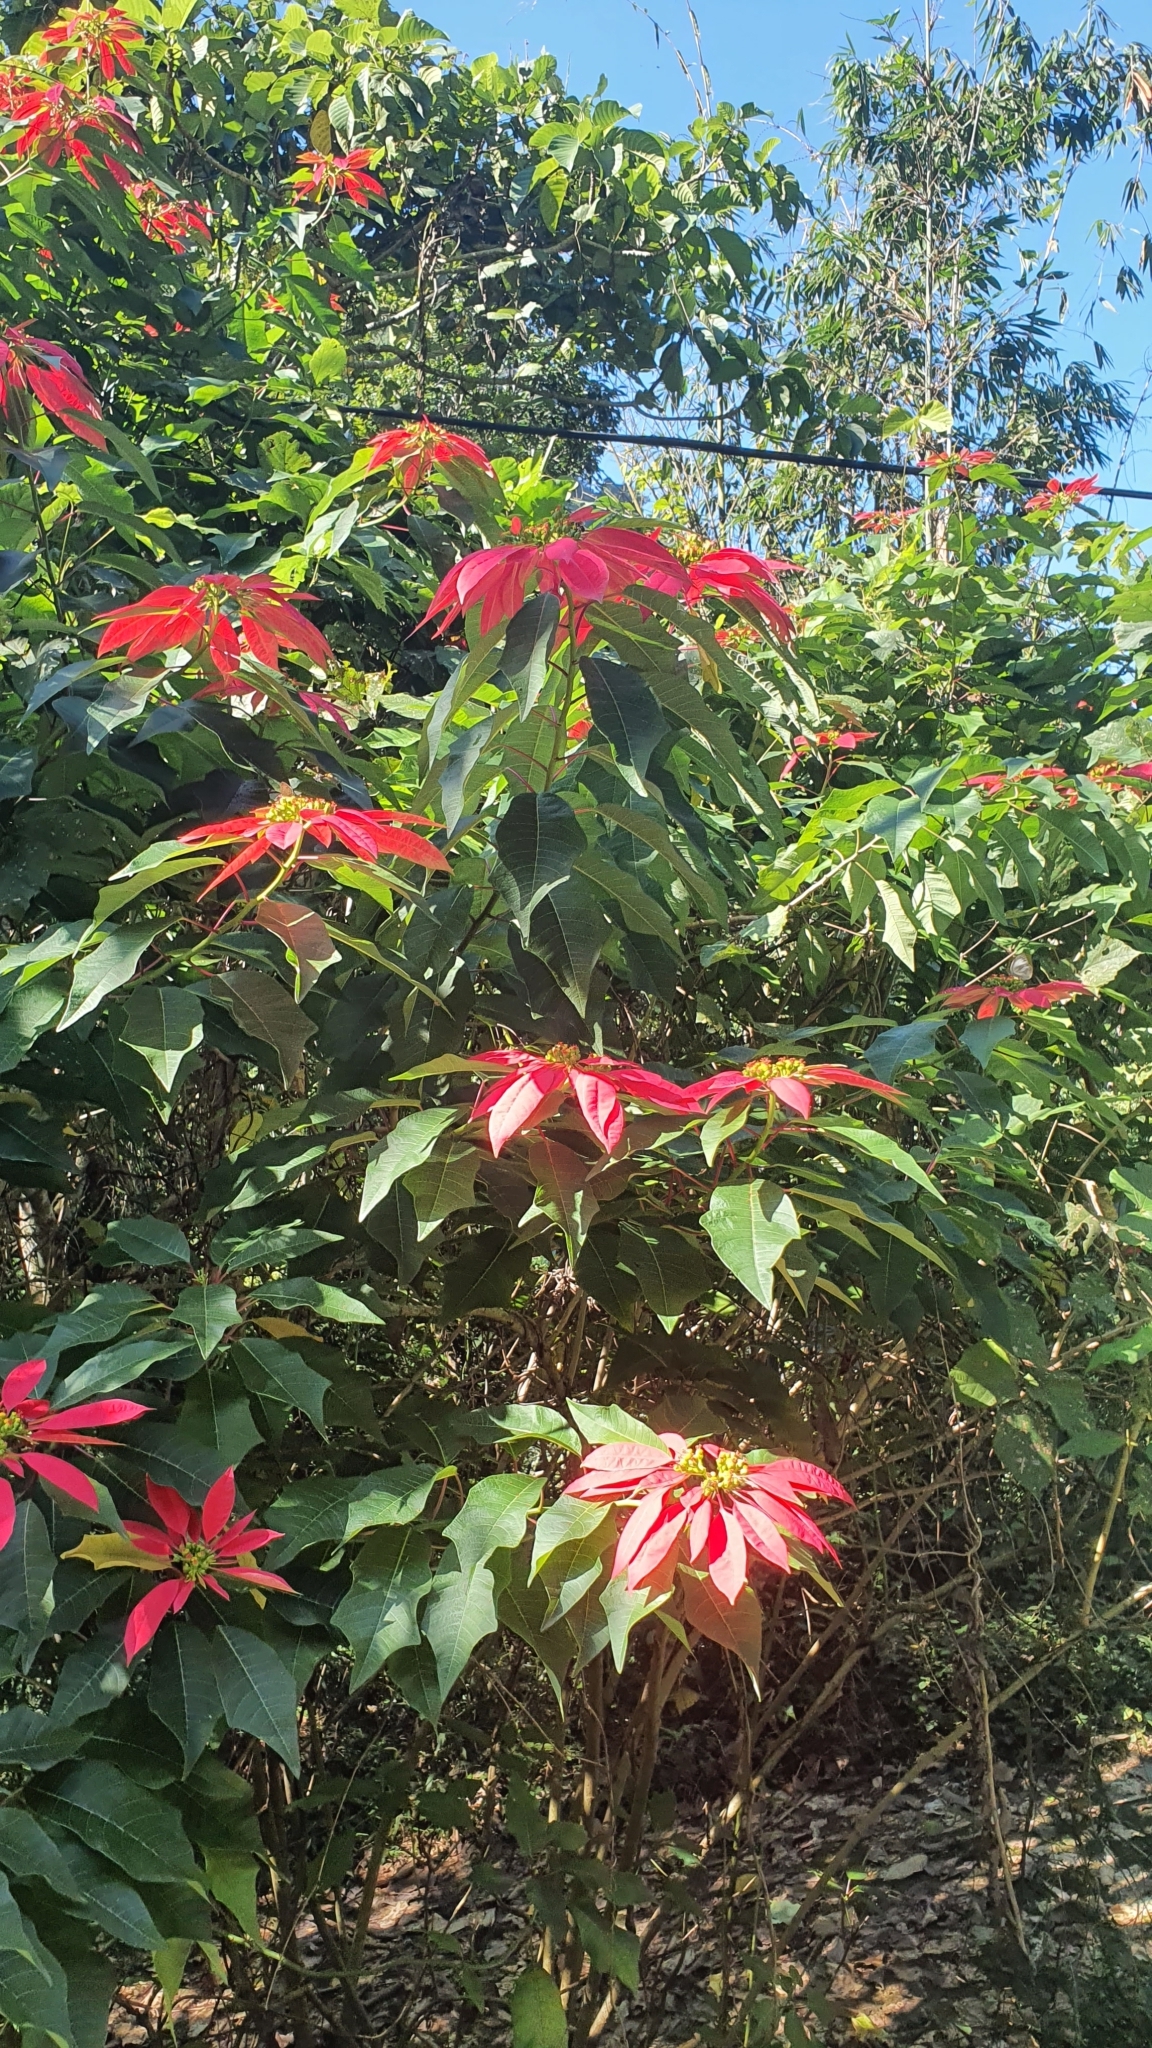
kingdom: Plantae
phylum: Tracheophyta
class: Magnoliopsida
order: Malpighiales
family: Euphorbiaceae
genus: Euphorbia
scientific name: Euphorbia pulcherrima
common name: Christmas-flower
